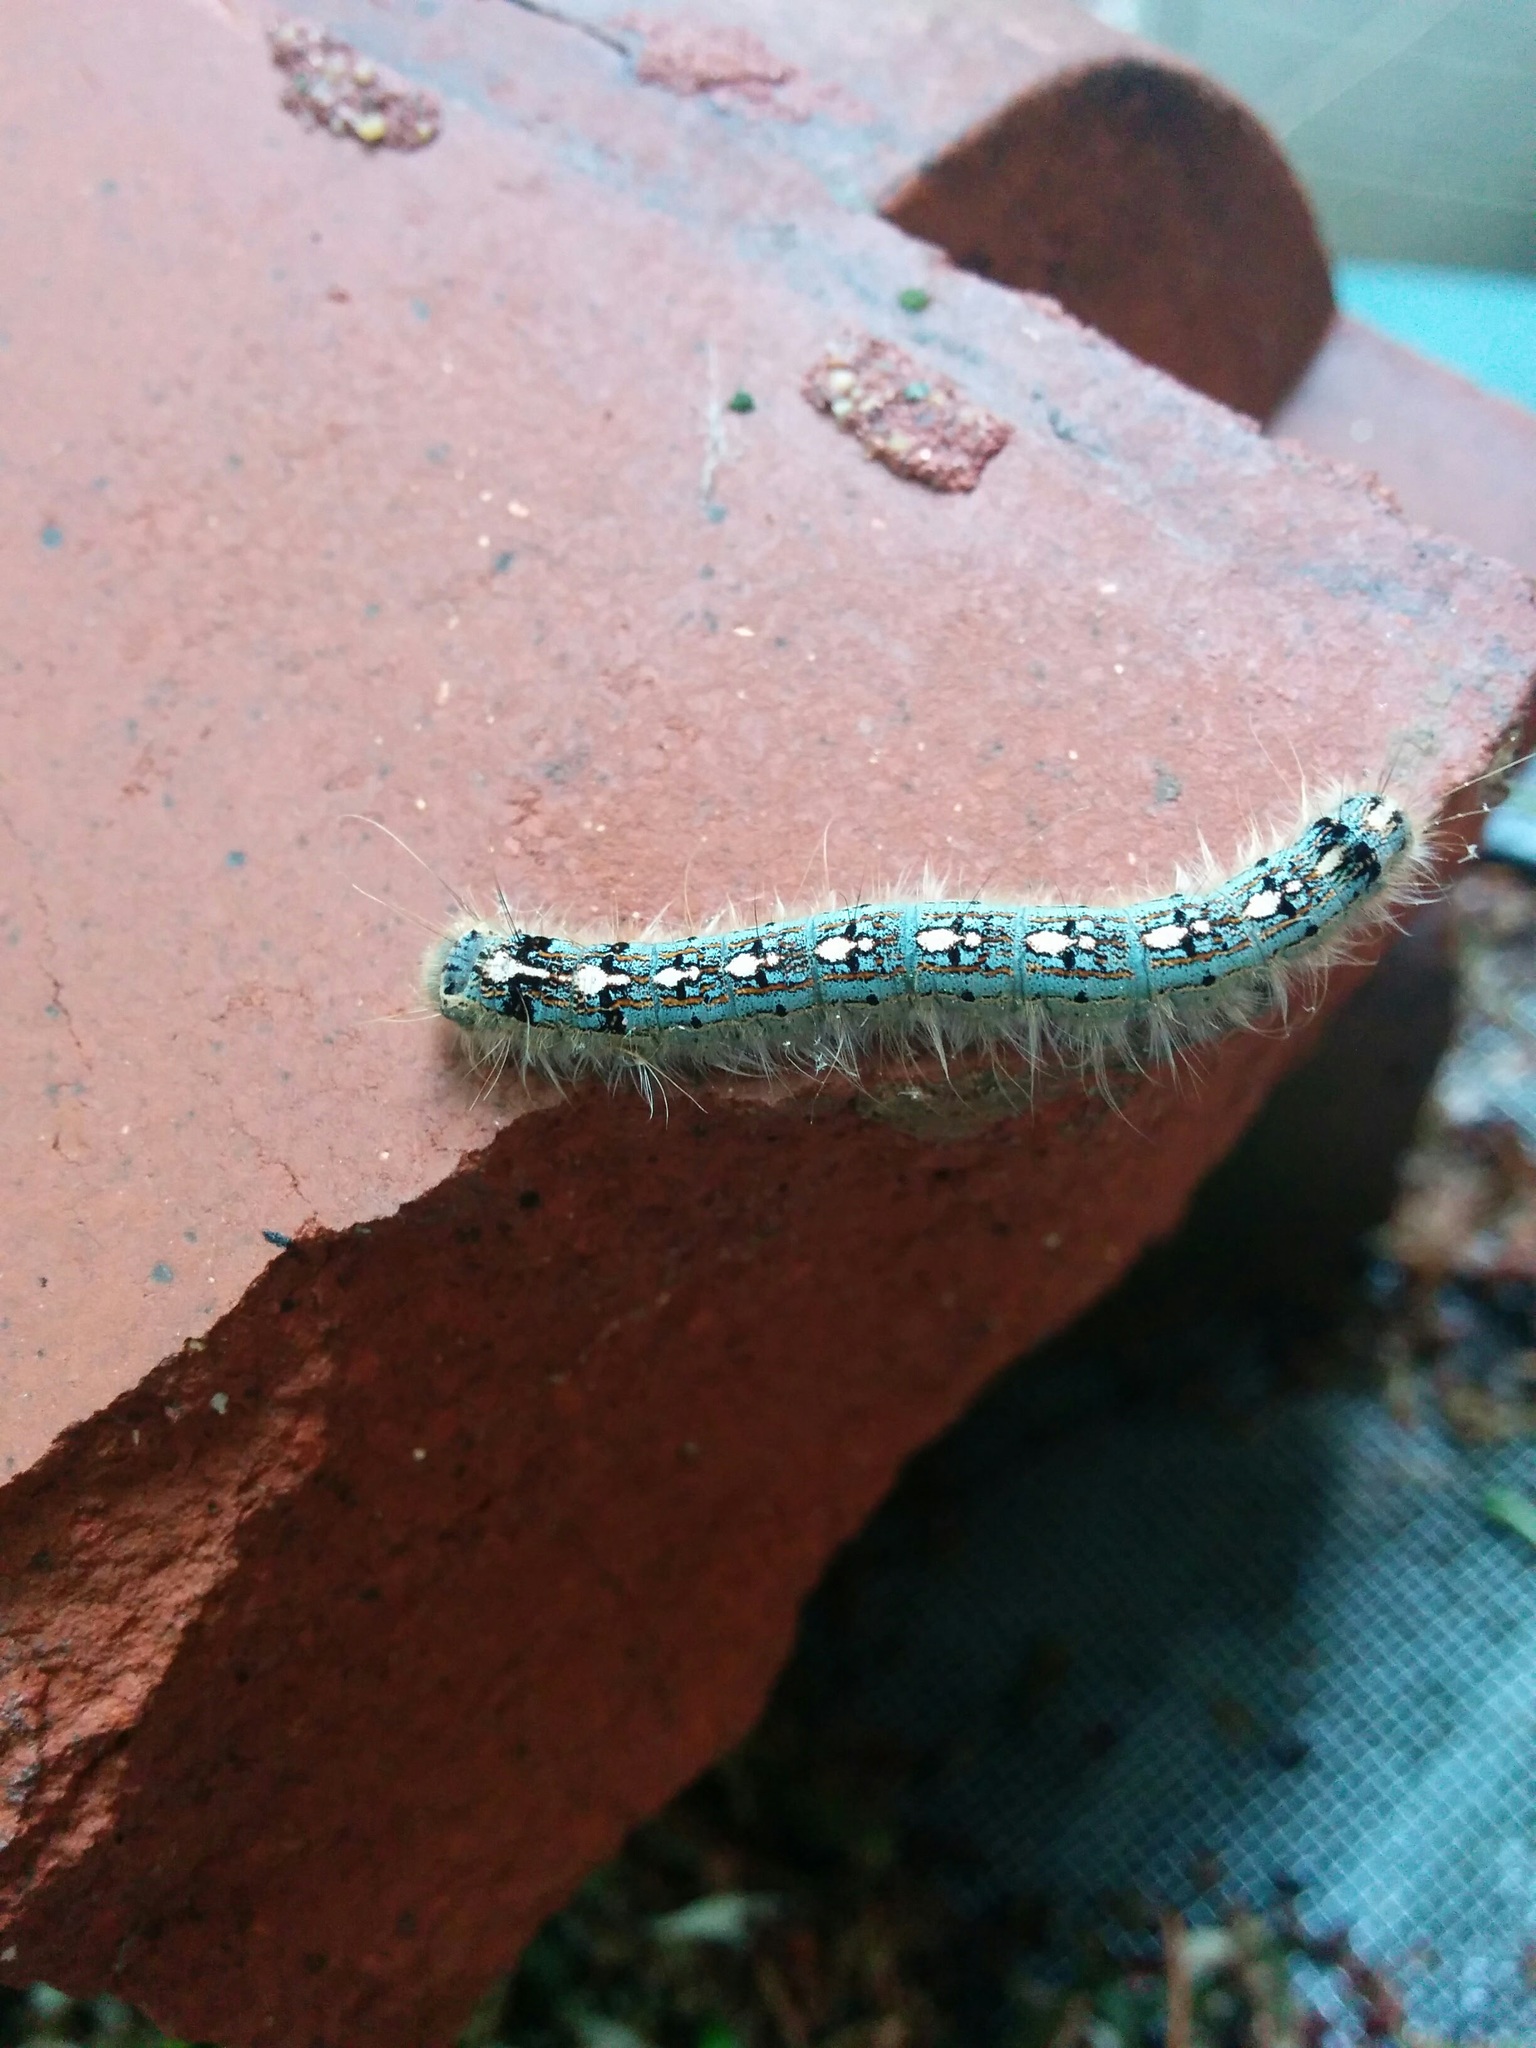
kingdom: Animalia
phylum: Arthropoda
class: Insecta
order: Lepidoptera
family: Lasiocampidae
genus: Malacosoma
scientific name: Malacosoma disstria
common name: Forest tent caterpillar
